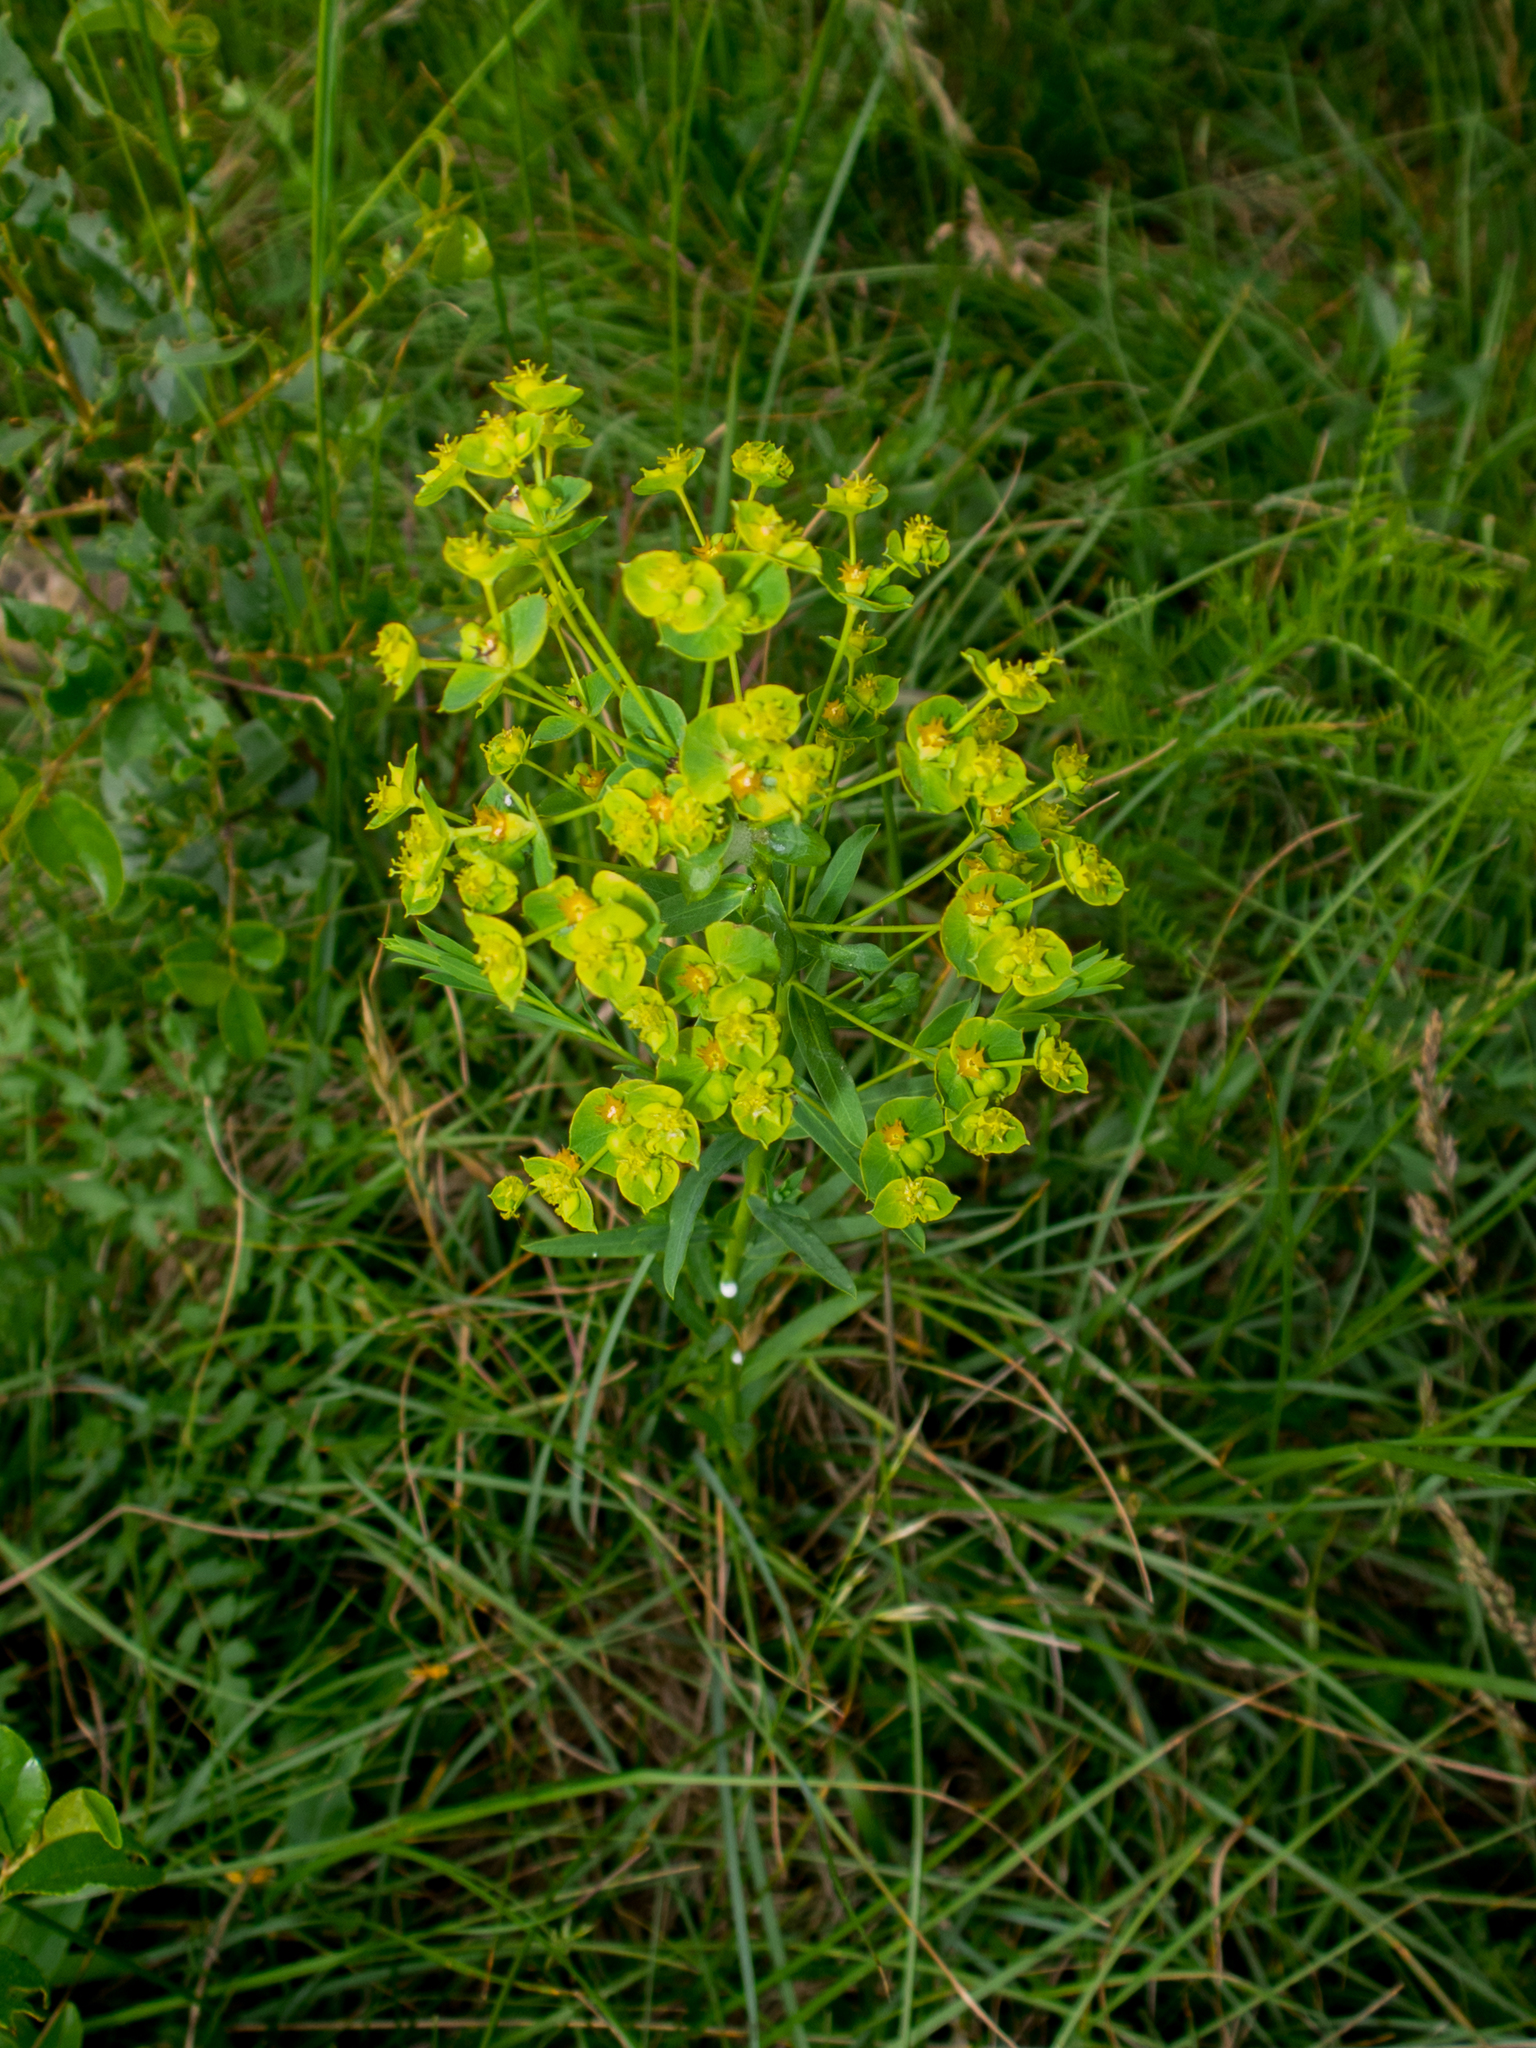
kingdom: Plantae
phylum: Tracheophyta
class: Magnoliopsida
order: Malpighiales
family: Euphorbiaceae
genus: Euphorbia
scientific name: Euphorbia virgata
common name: Leafy spurge
